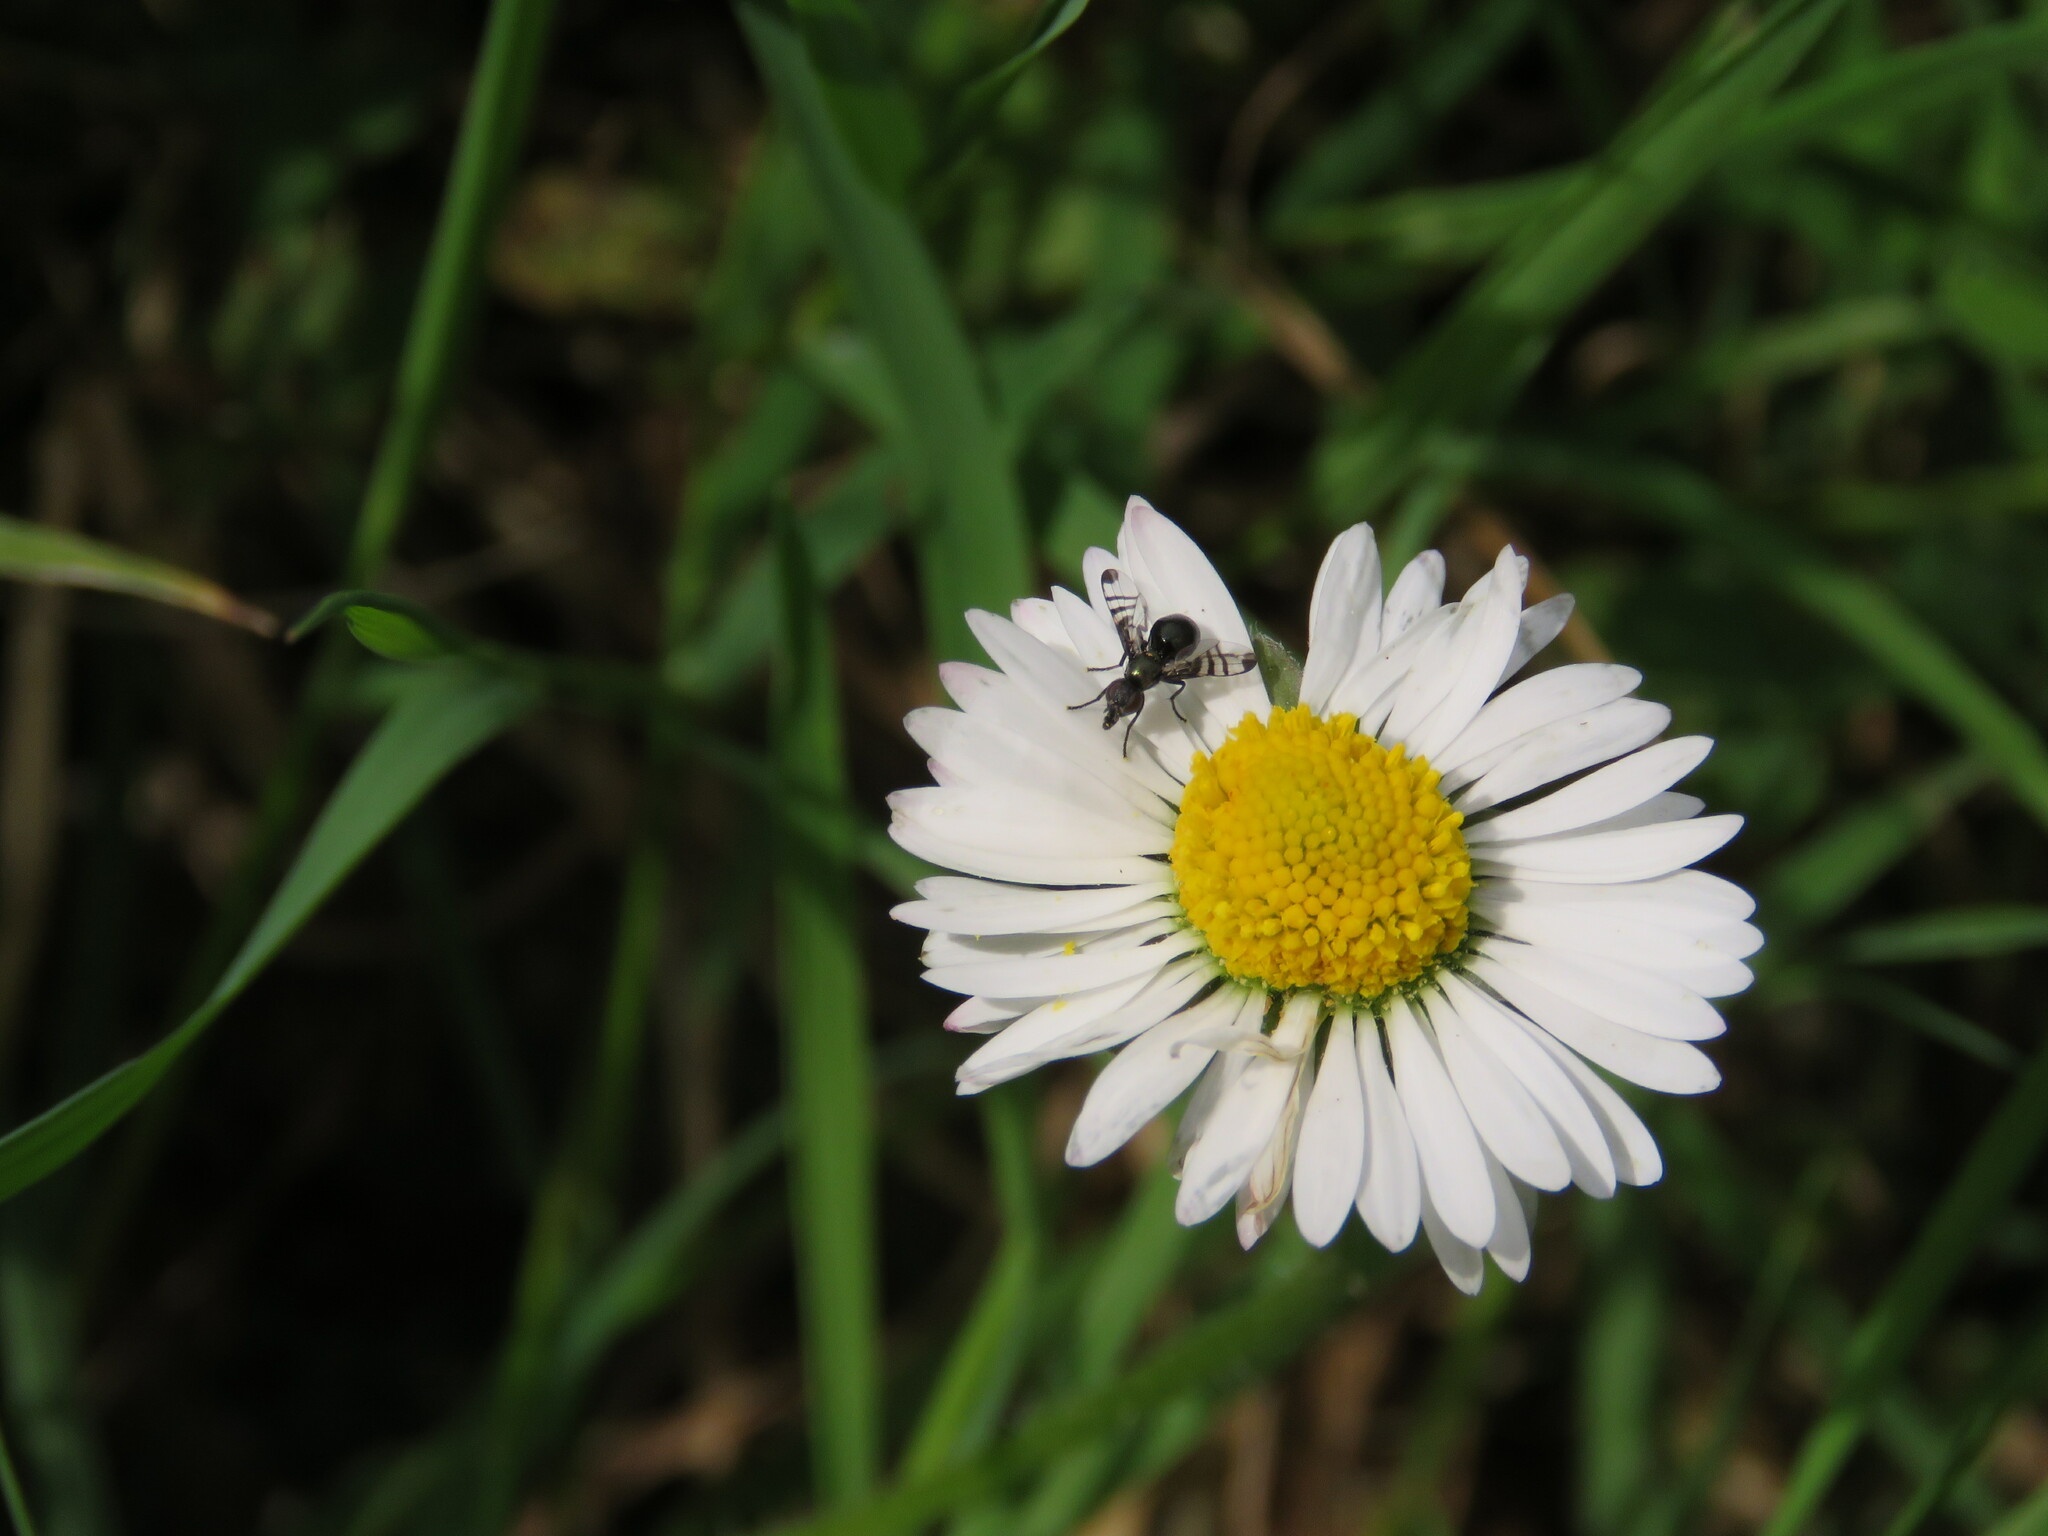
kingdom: Animalia
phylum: Arthropoda
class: Insecta
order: Diptera
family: Platystomatidae
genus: Rivellia
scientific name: Rivellia syngenesiae
